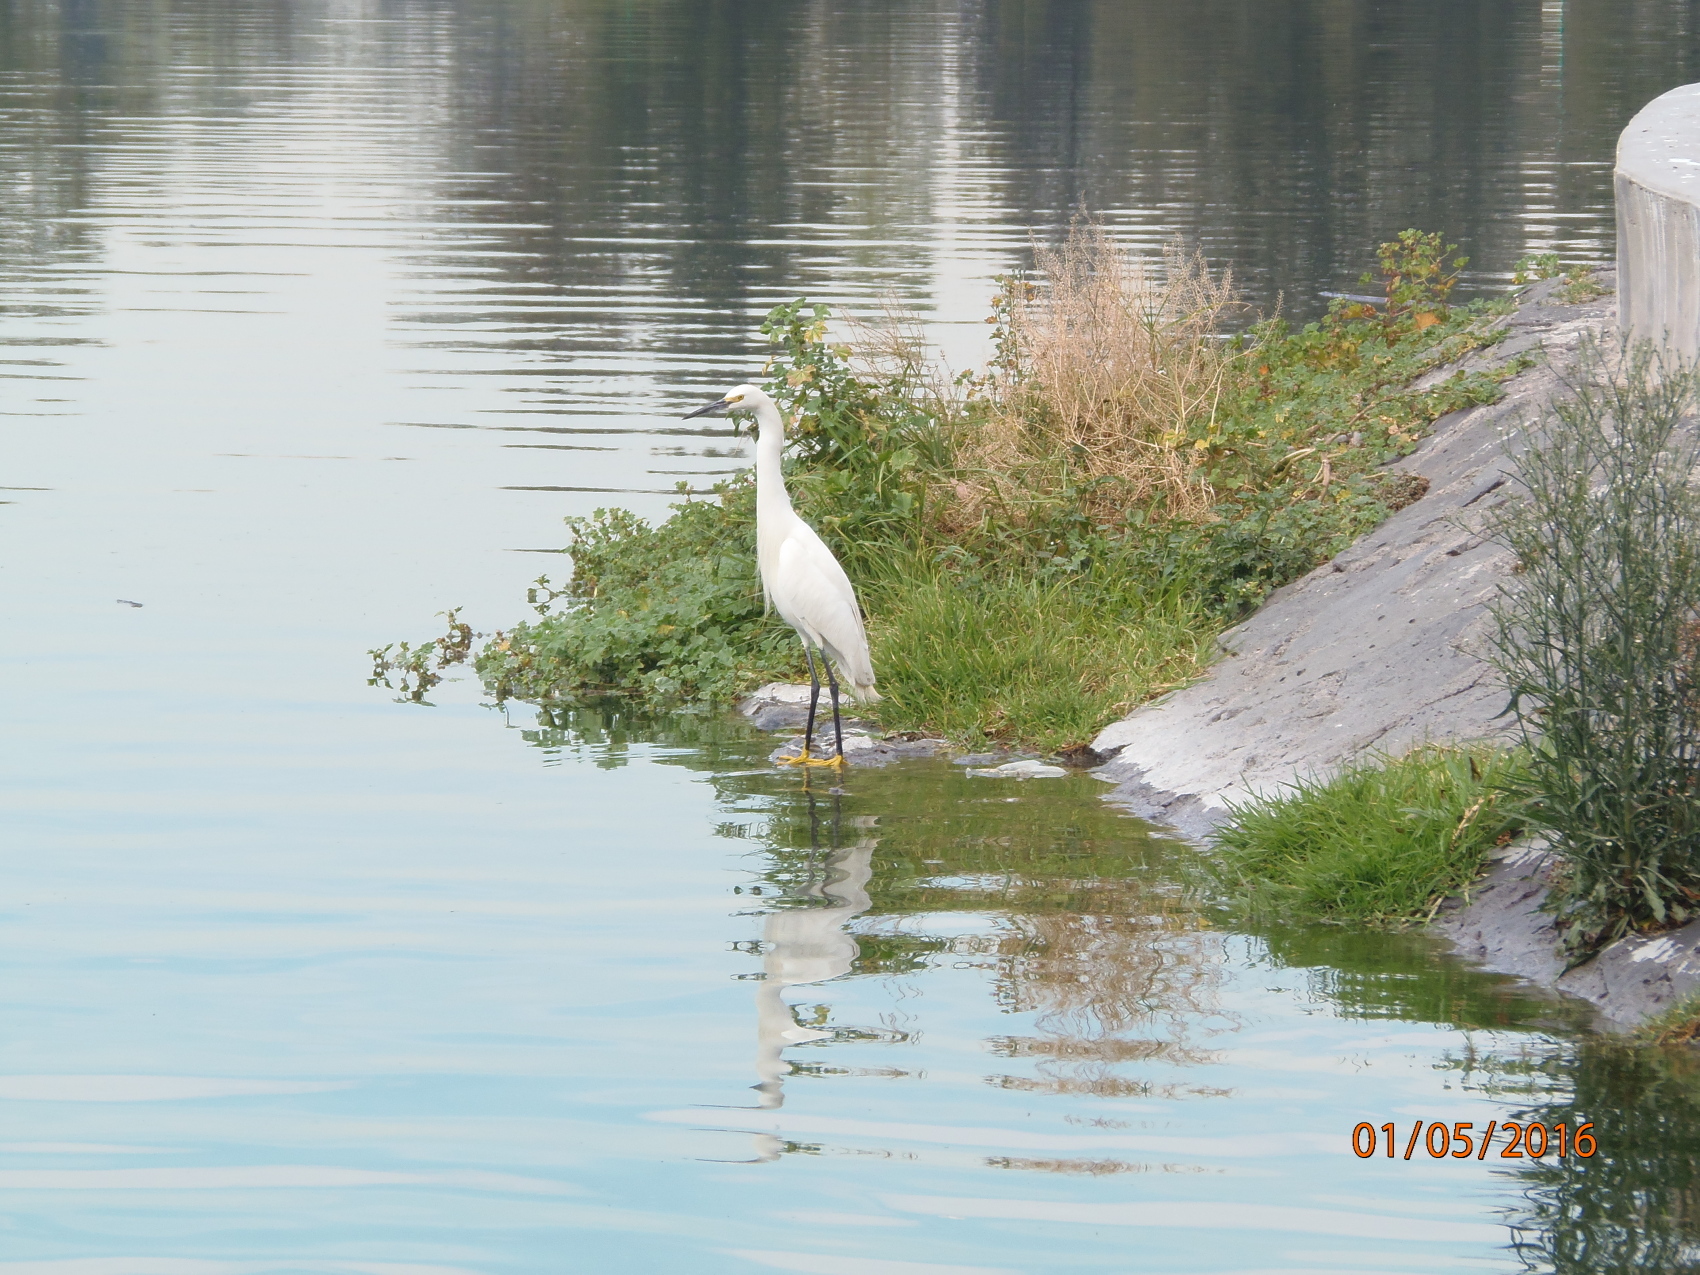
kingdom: Animalia
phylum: Chordata
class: Aves
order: Pelecaniformes
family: Ardeidae
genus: Egretta
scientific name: Egretta thula
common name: Snowy egret
